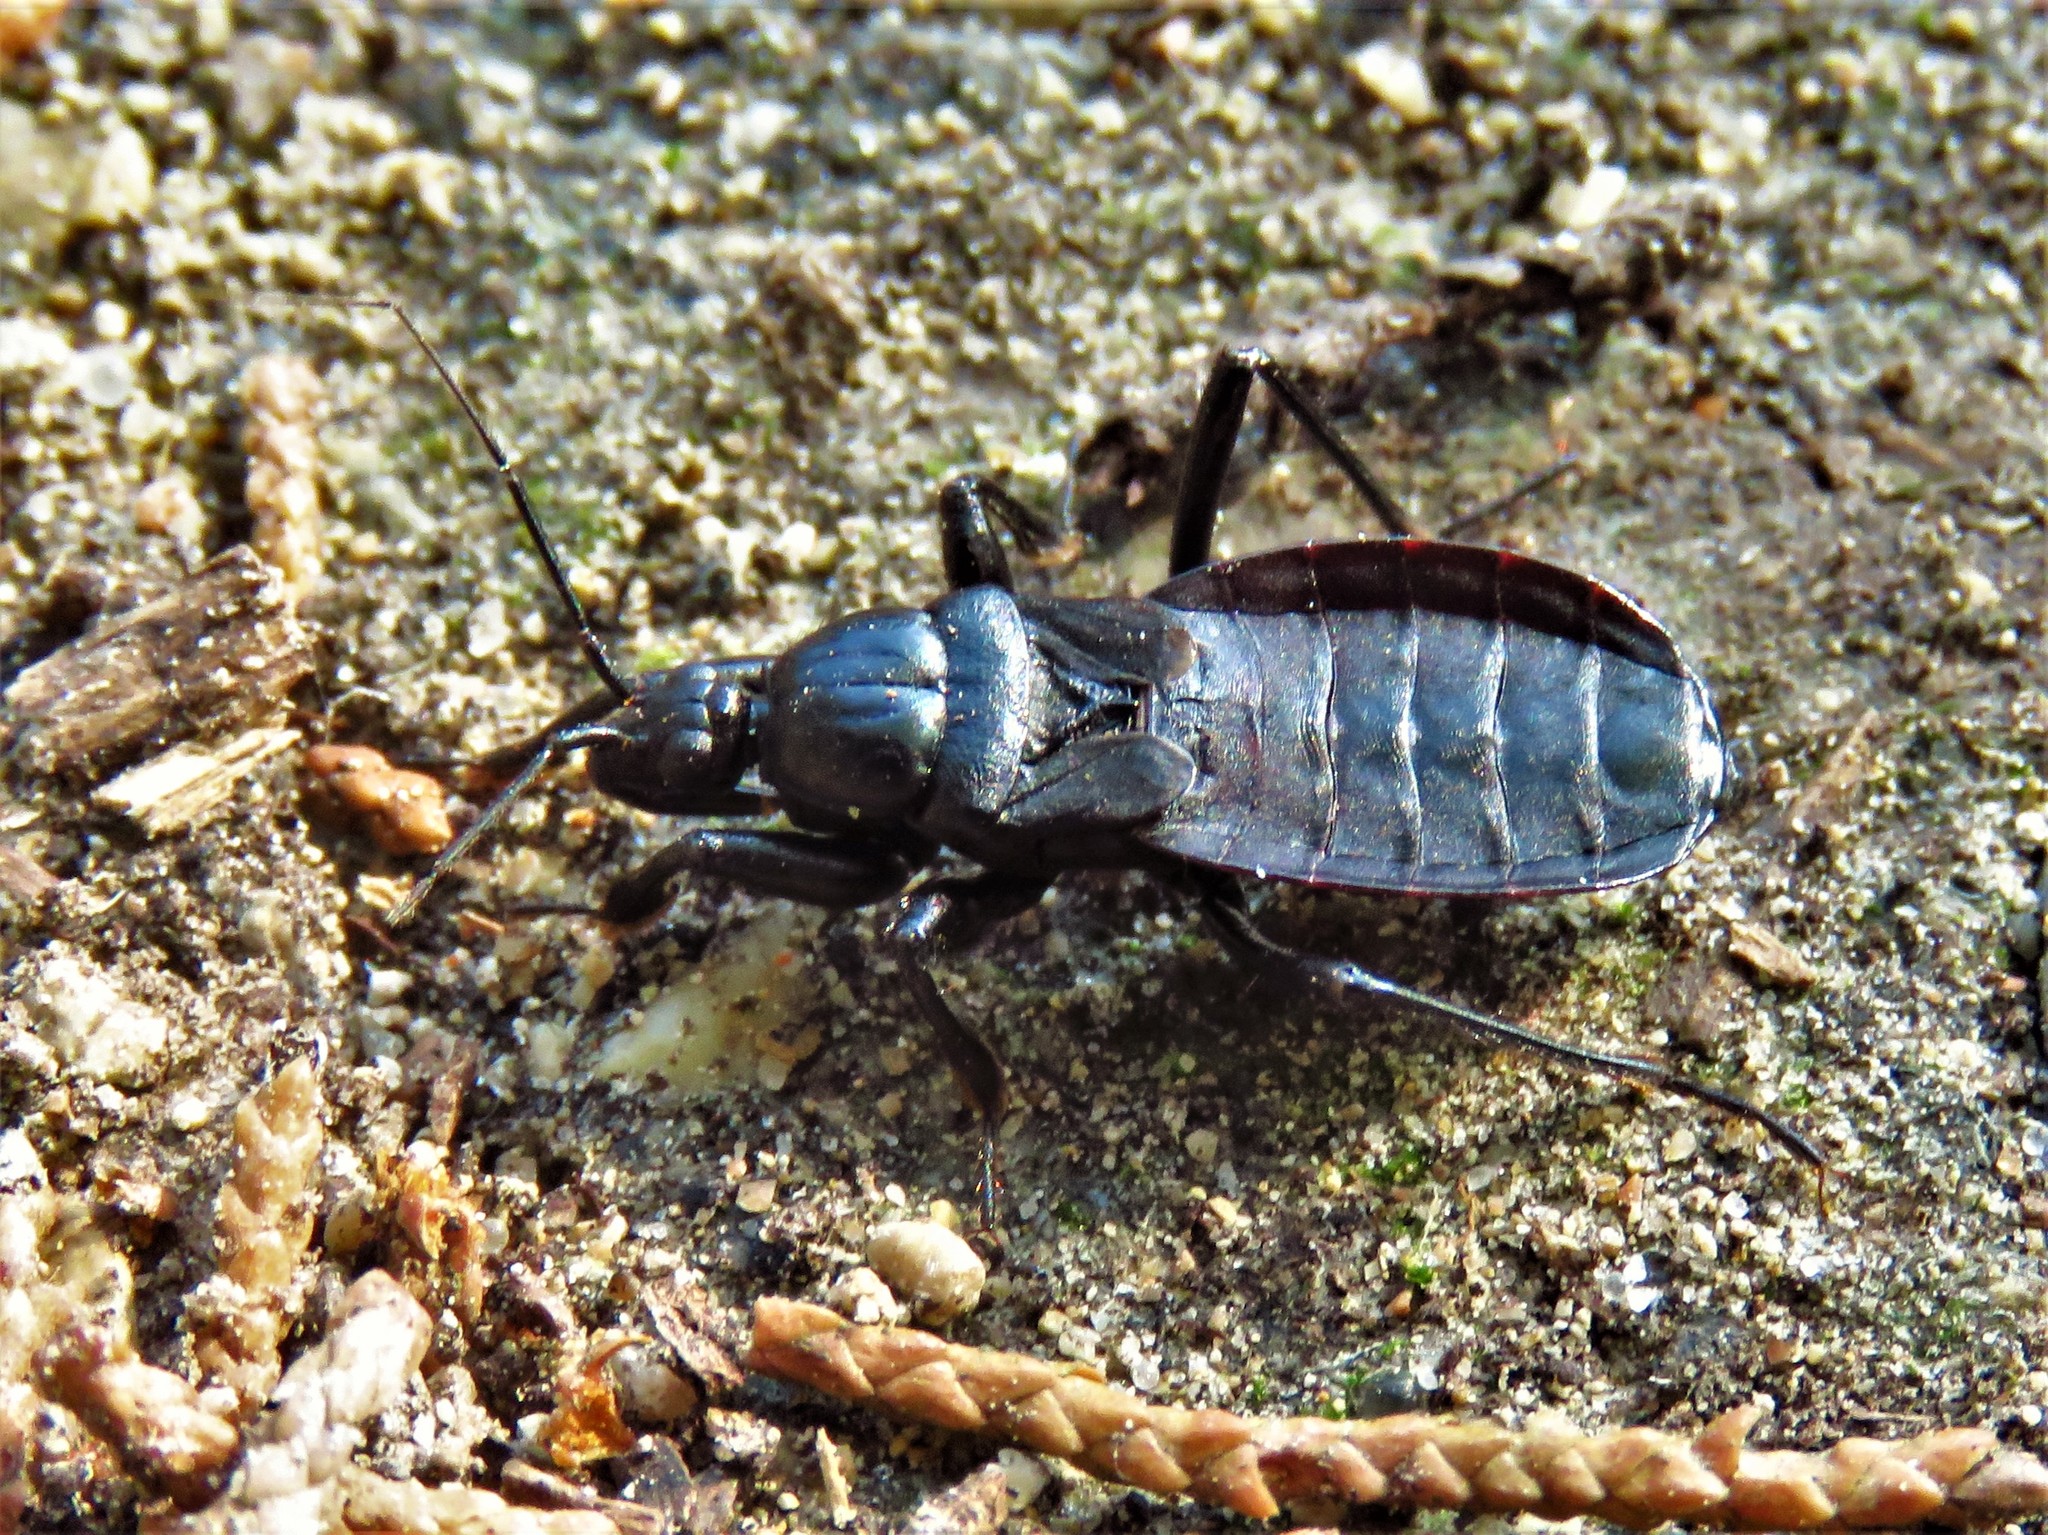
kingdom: Animalia
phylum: Arthropoda
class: Insecta
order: Hemiptera
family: Reduviidae
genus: Melanolestes
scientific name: Melanolestes picipes
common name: Assassin bug
